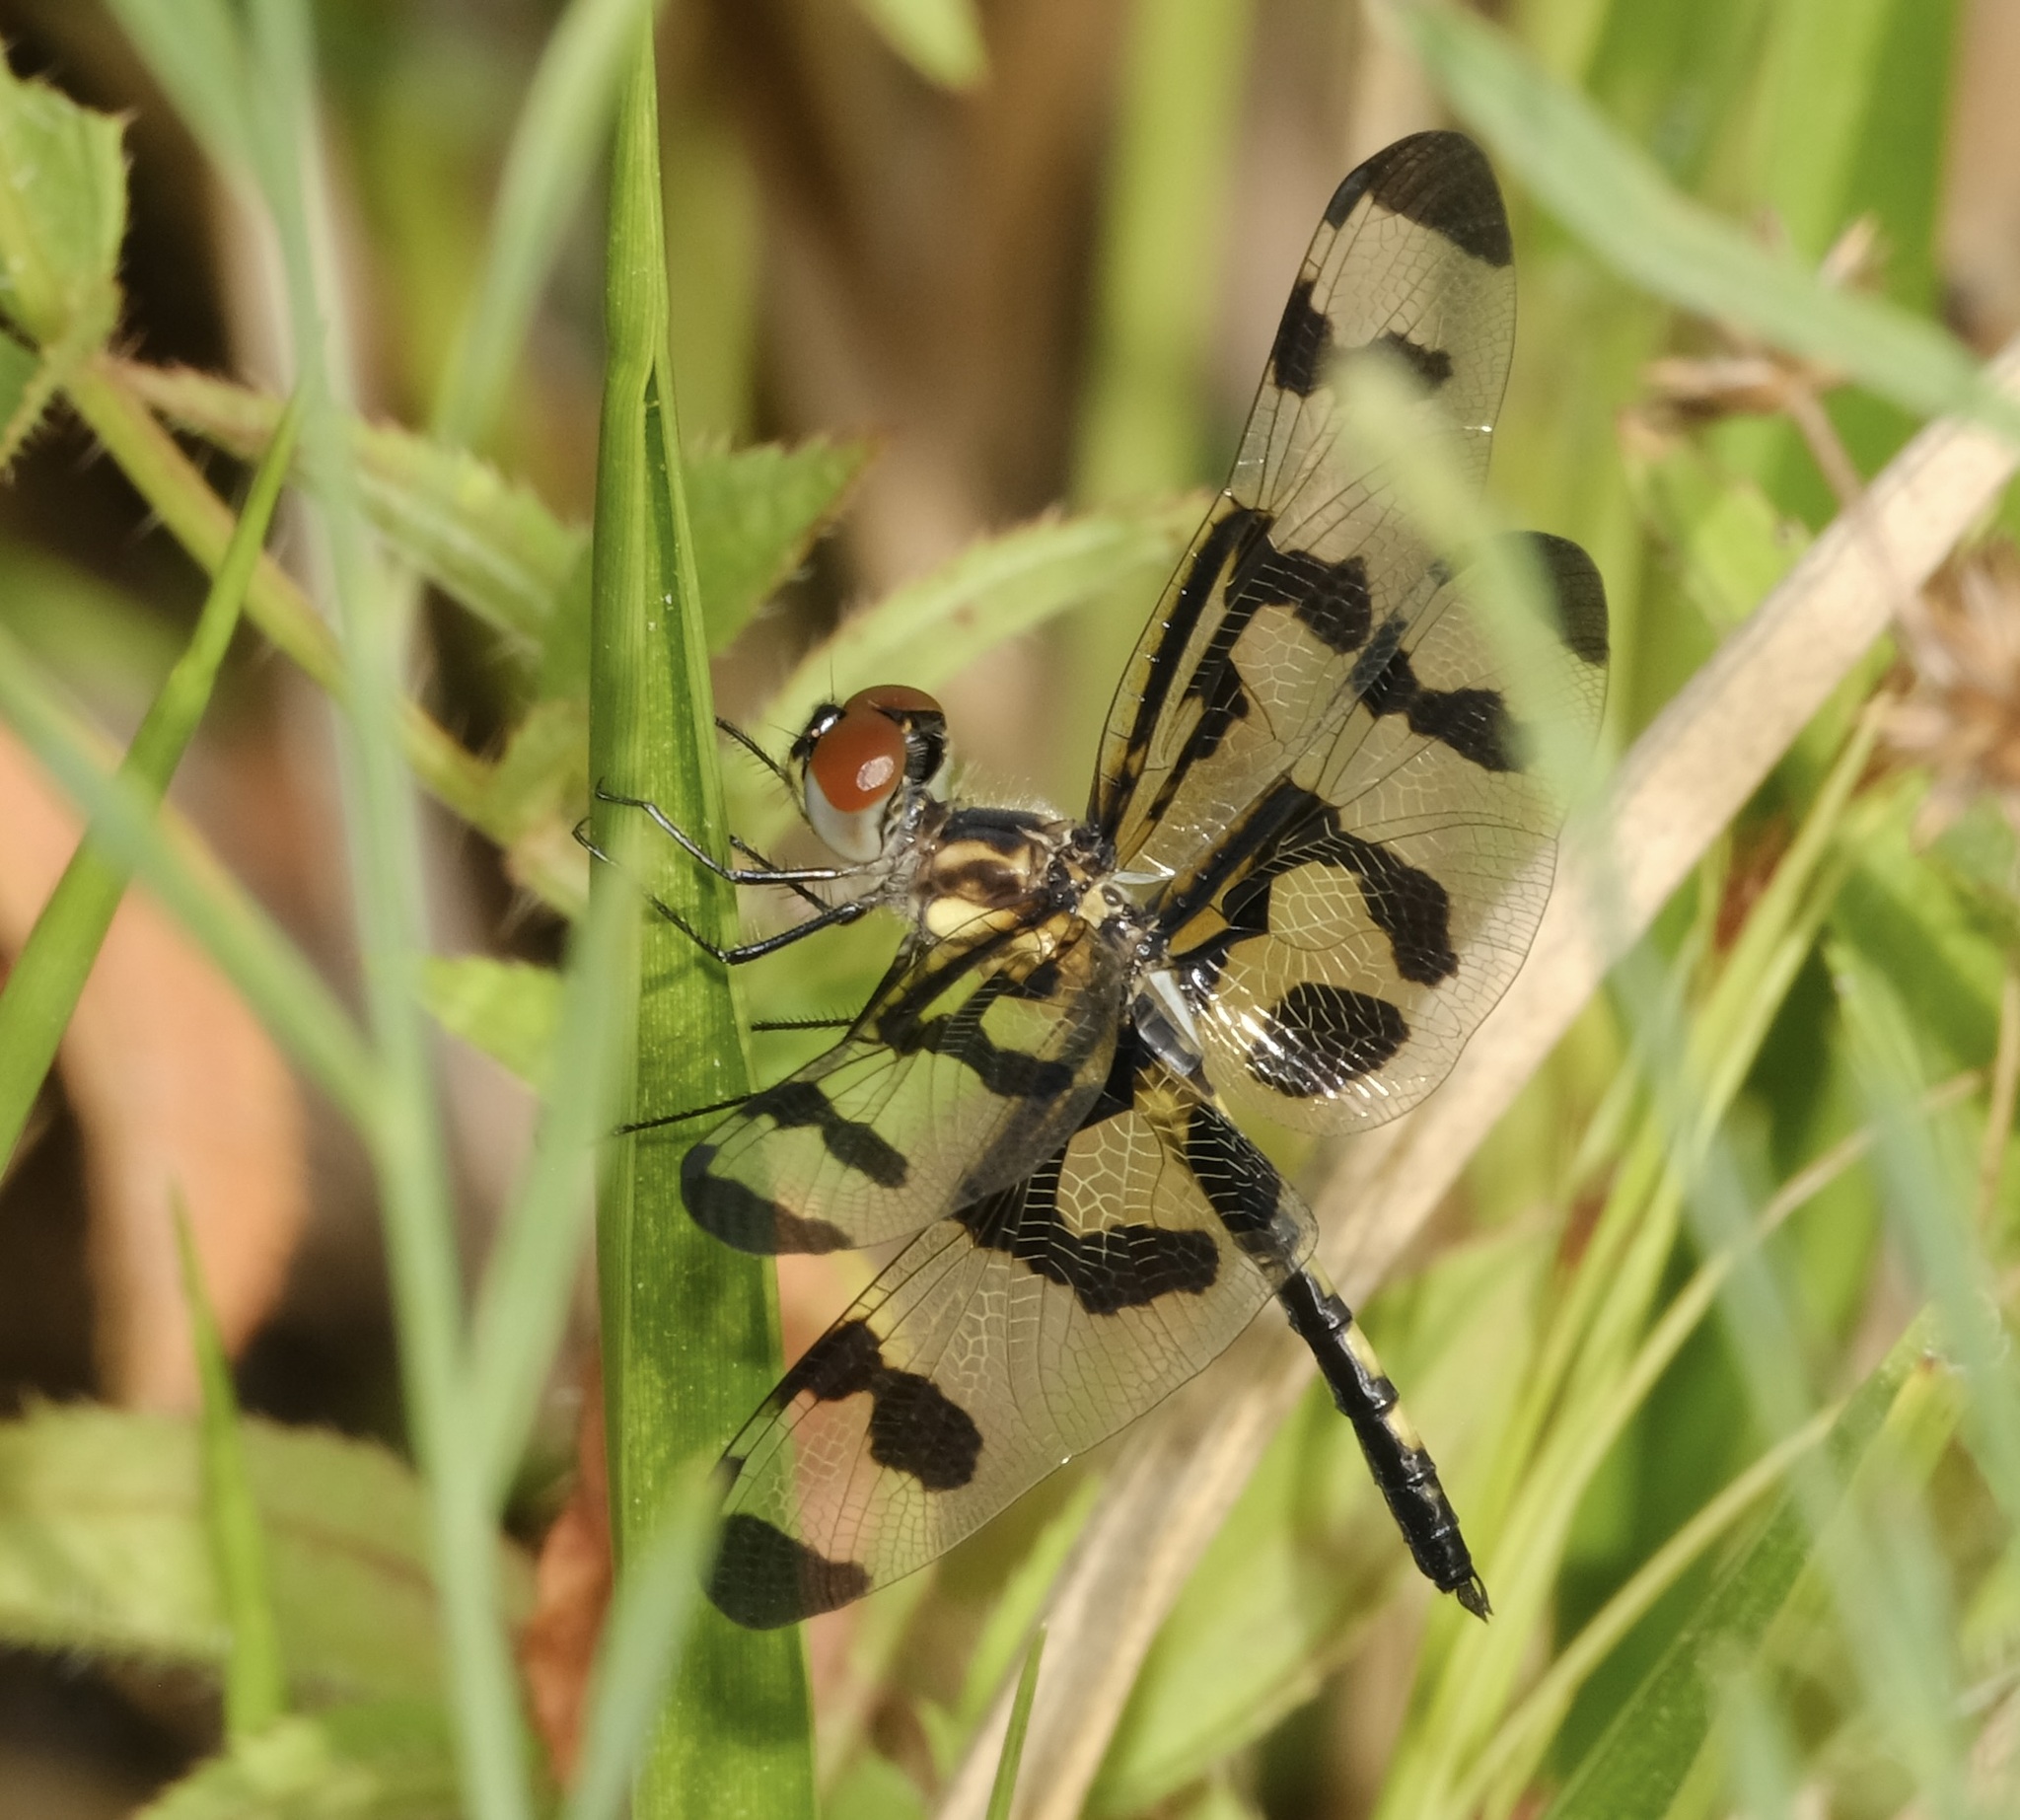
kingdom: Animalia
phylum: Arthropoda
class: Insecta
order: Odonata
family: Libellulidae
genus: Celithemis
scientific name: Celithemis fasciata
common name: Banded pennant
